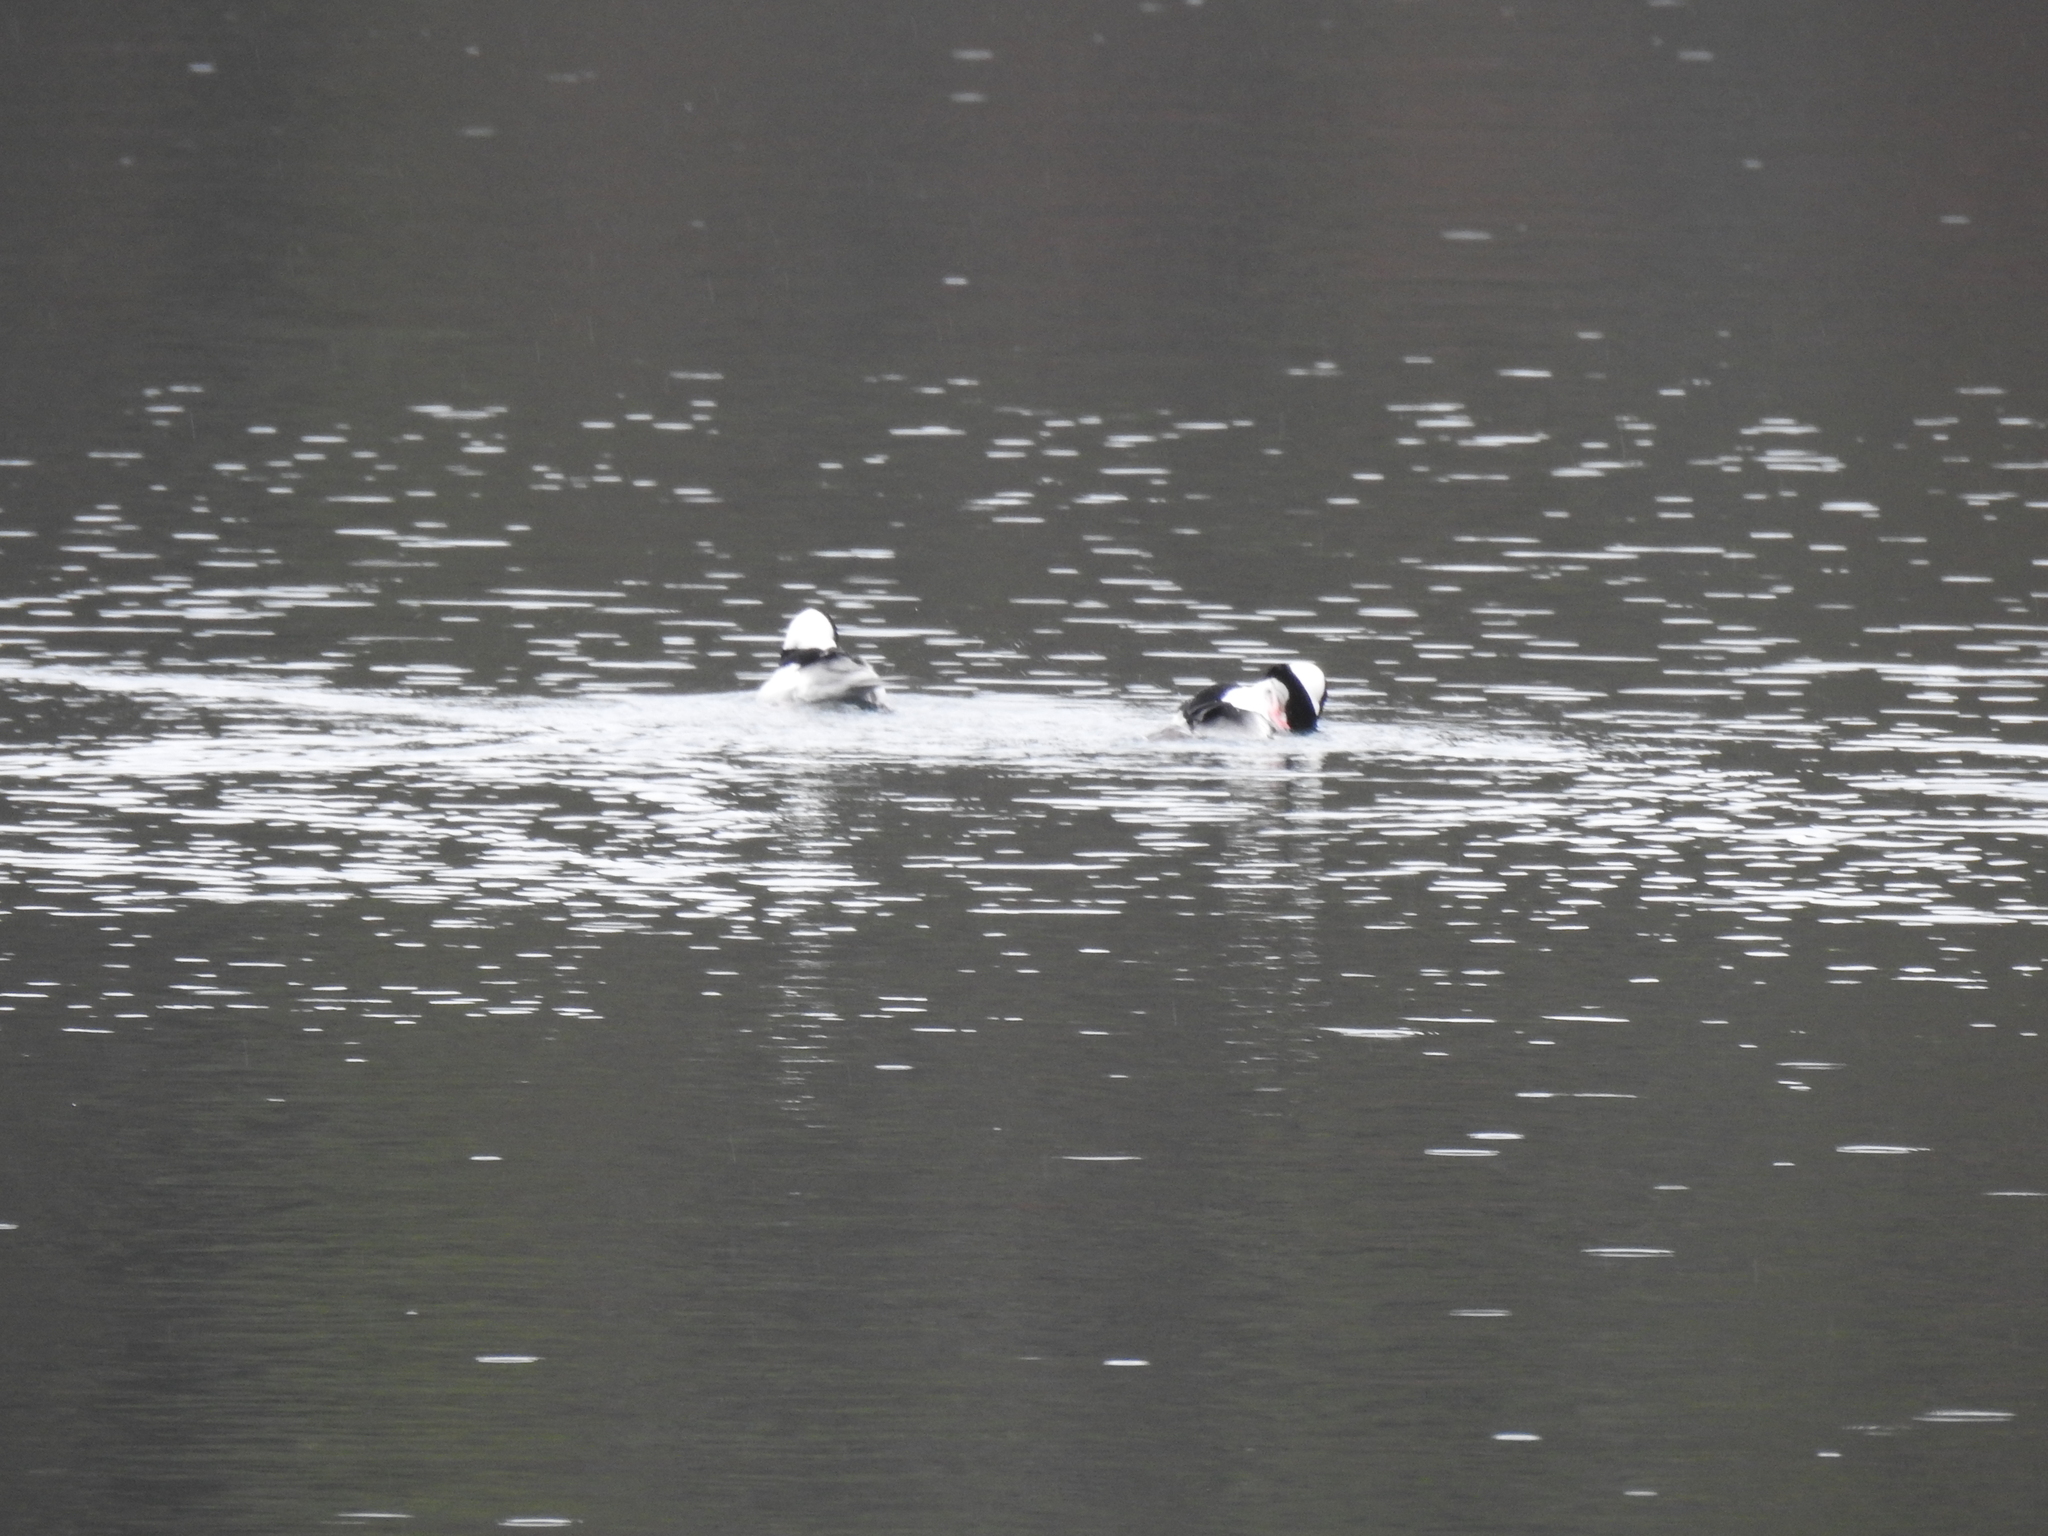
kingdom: Animalia
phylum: Chordata
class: Aves
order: Anseriformes
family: Anatidae
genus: Bucephala
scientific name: Bucephala albeola
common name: Bufflehead
